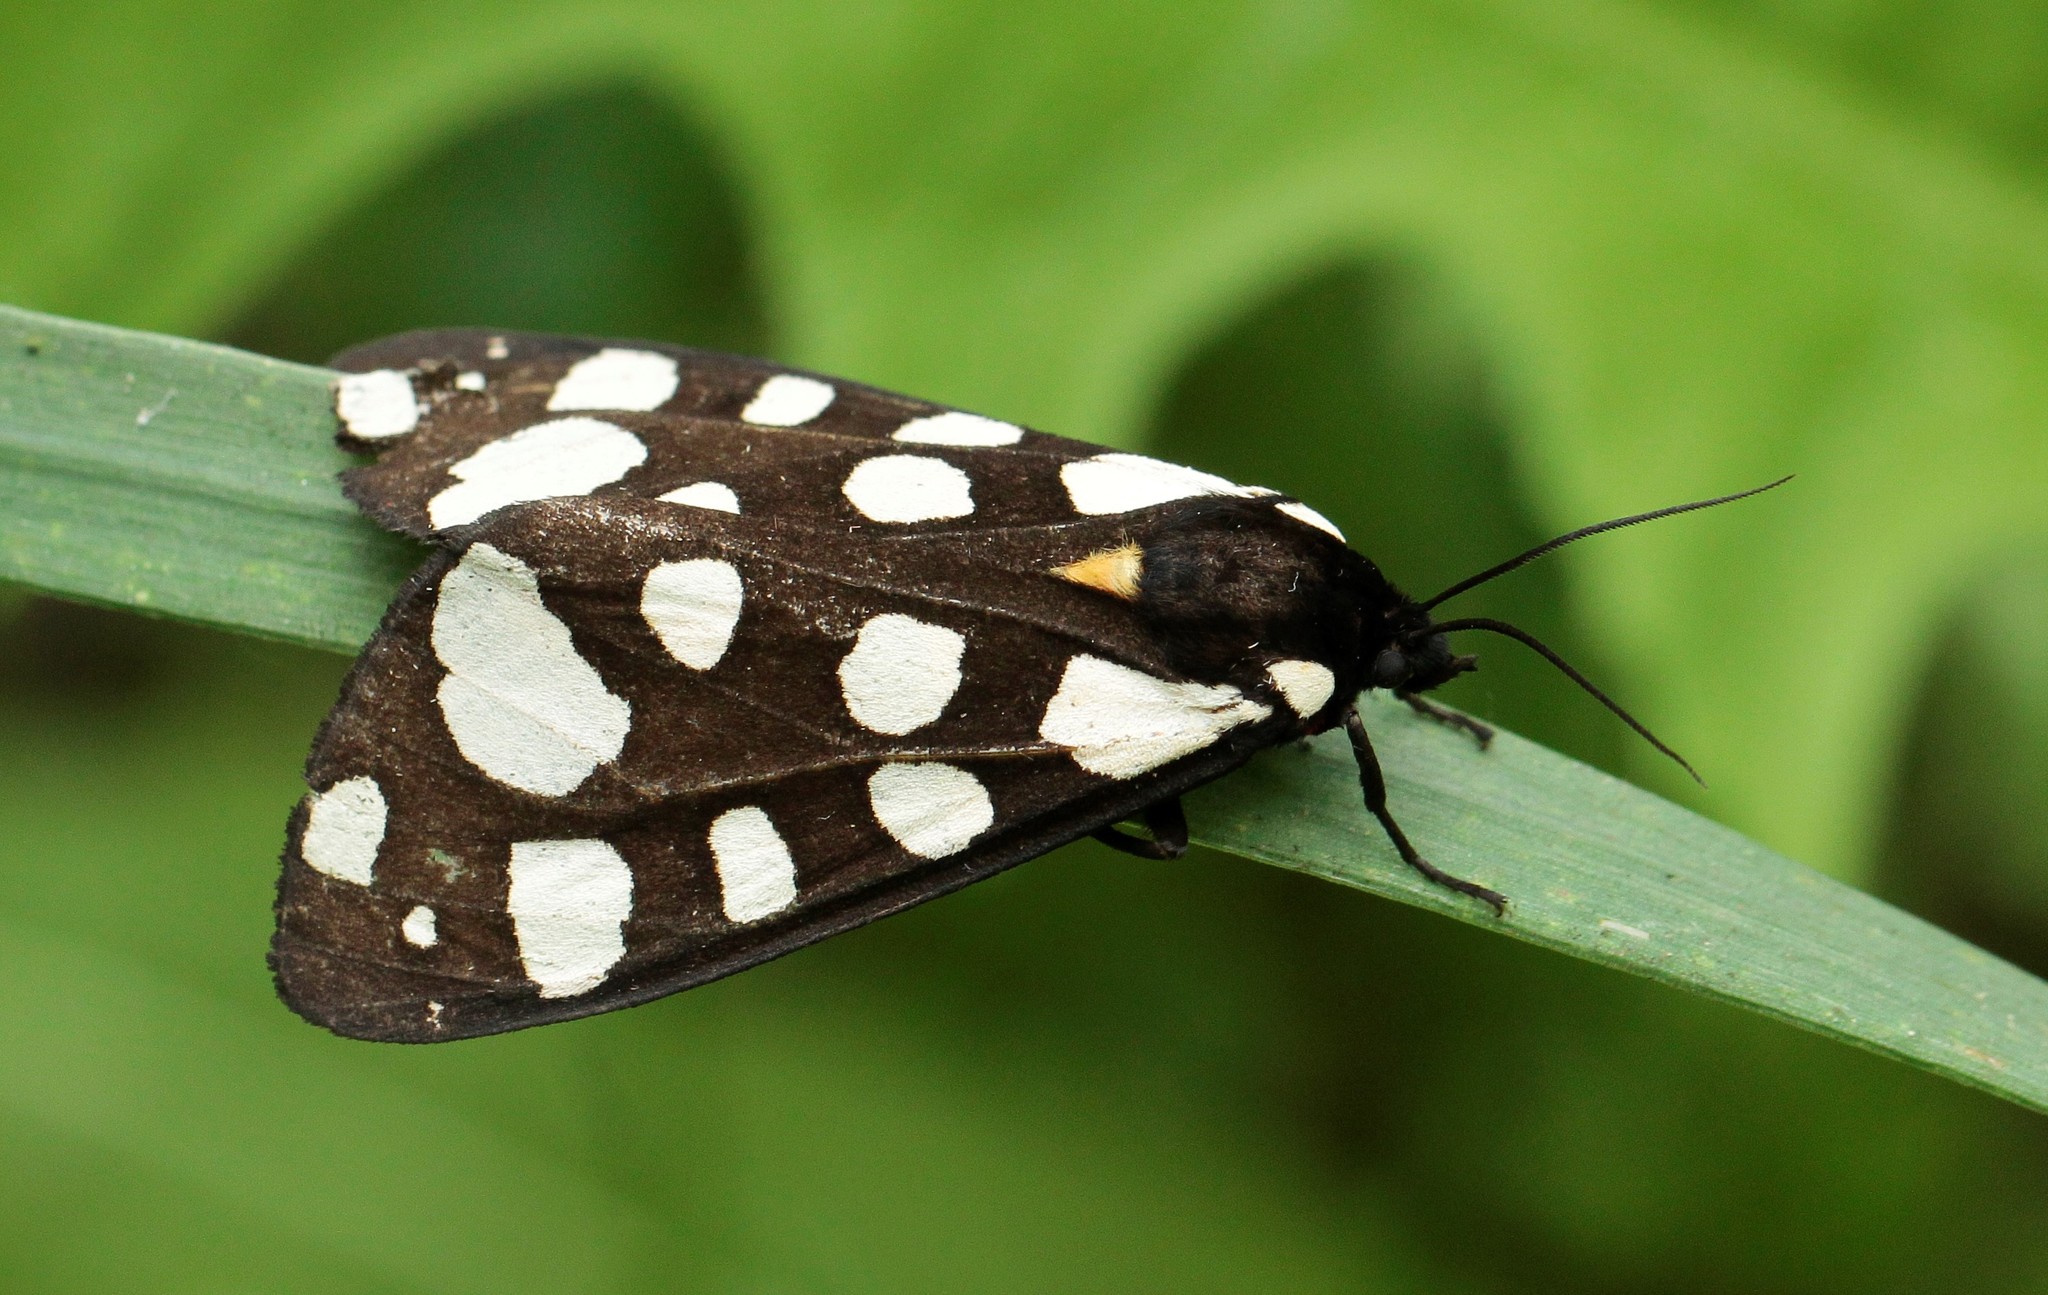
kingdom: Animalia
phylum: Arthropoda
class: Insecta
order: Lepidoptera
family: Erebidae
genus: Epicallia
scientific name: Epicallia villica
